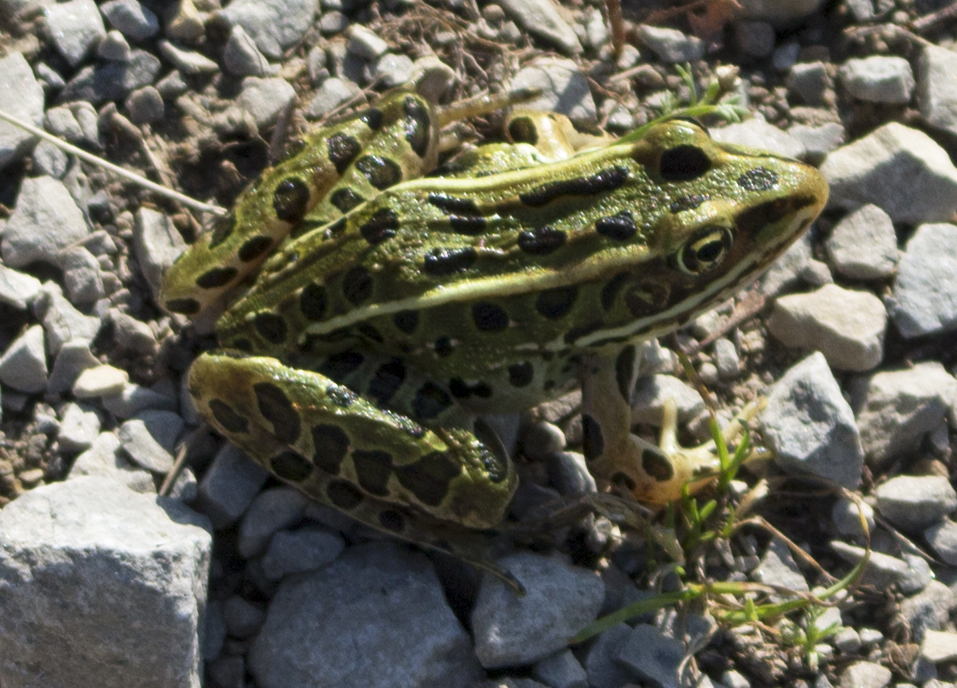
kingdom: Animalia
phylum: Chordata
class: Amphibia
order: Anura
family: Ranidae
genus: Lithobates
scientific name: Lithobates pipiens
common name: Northern leopard frog
